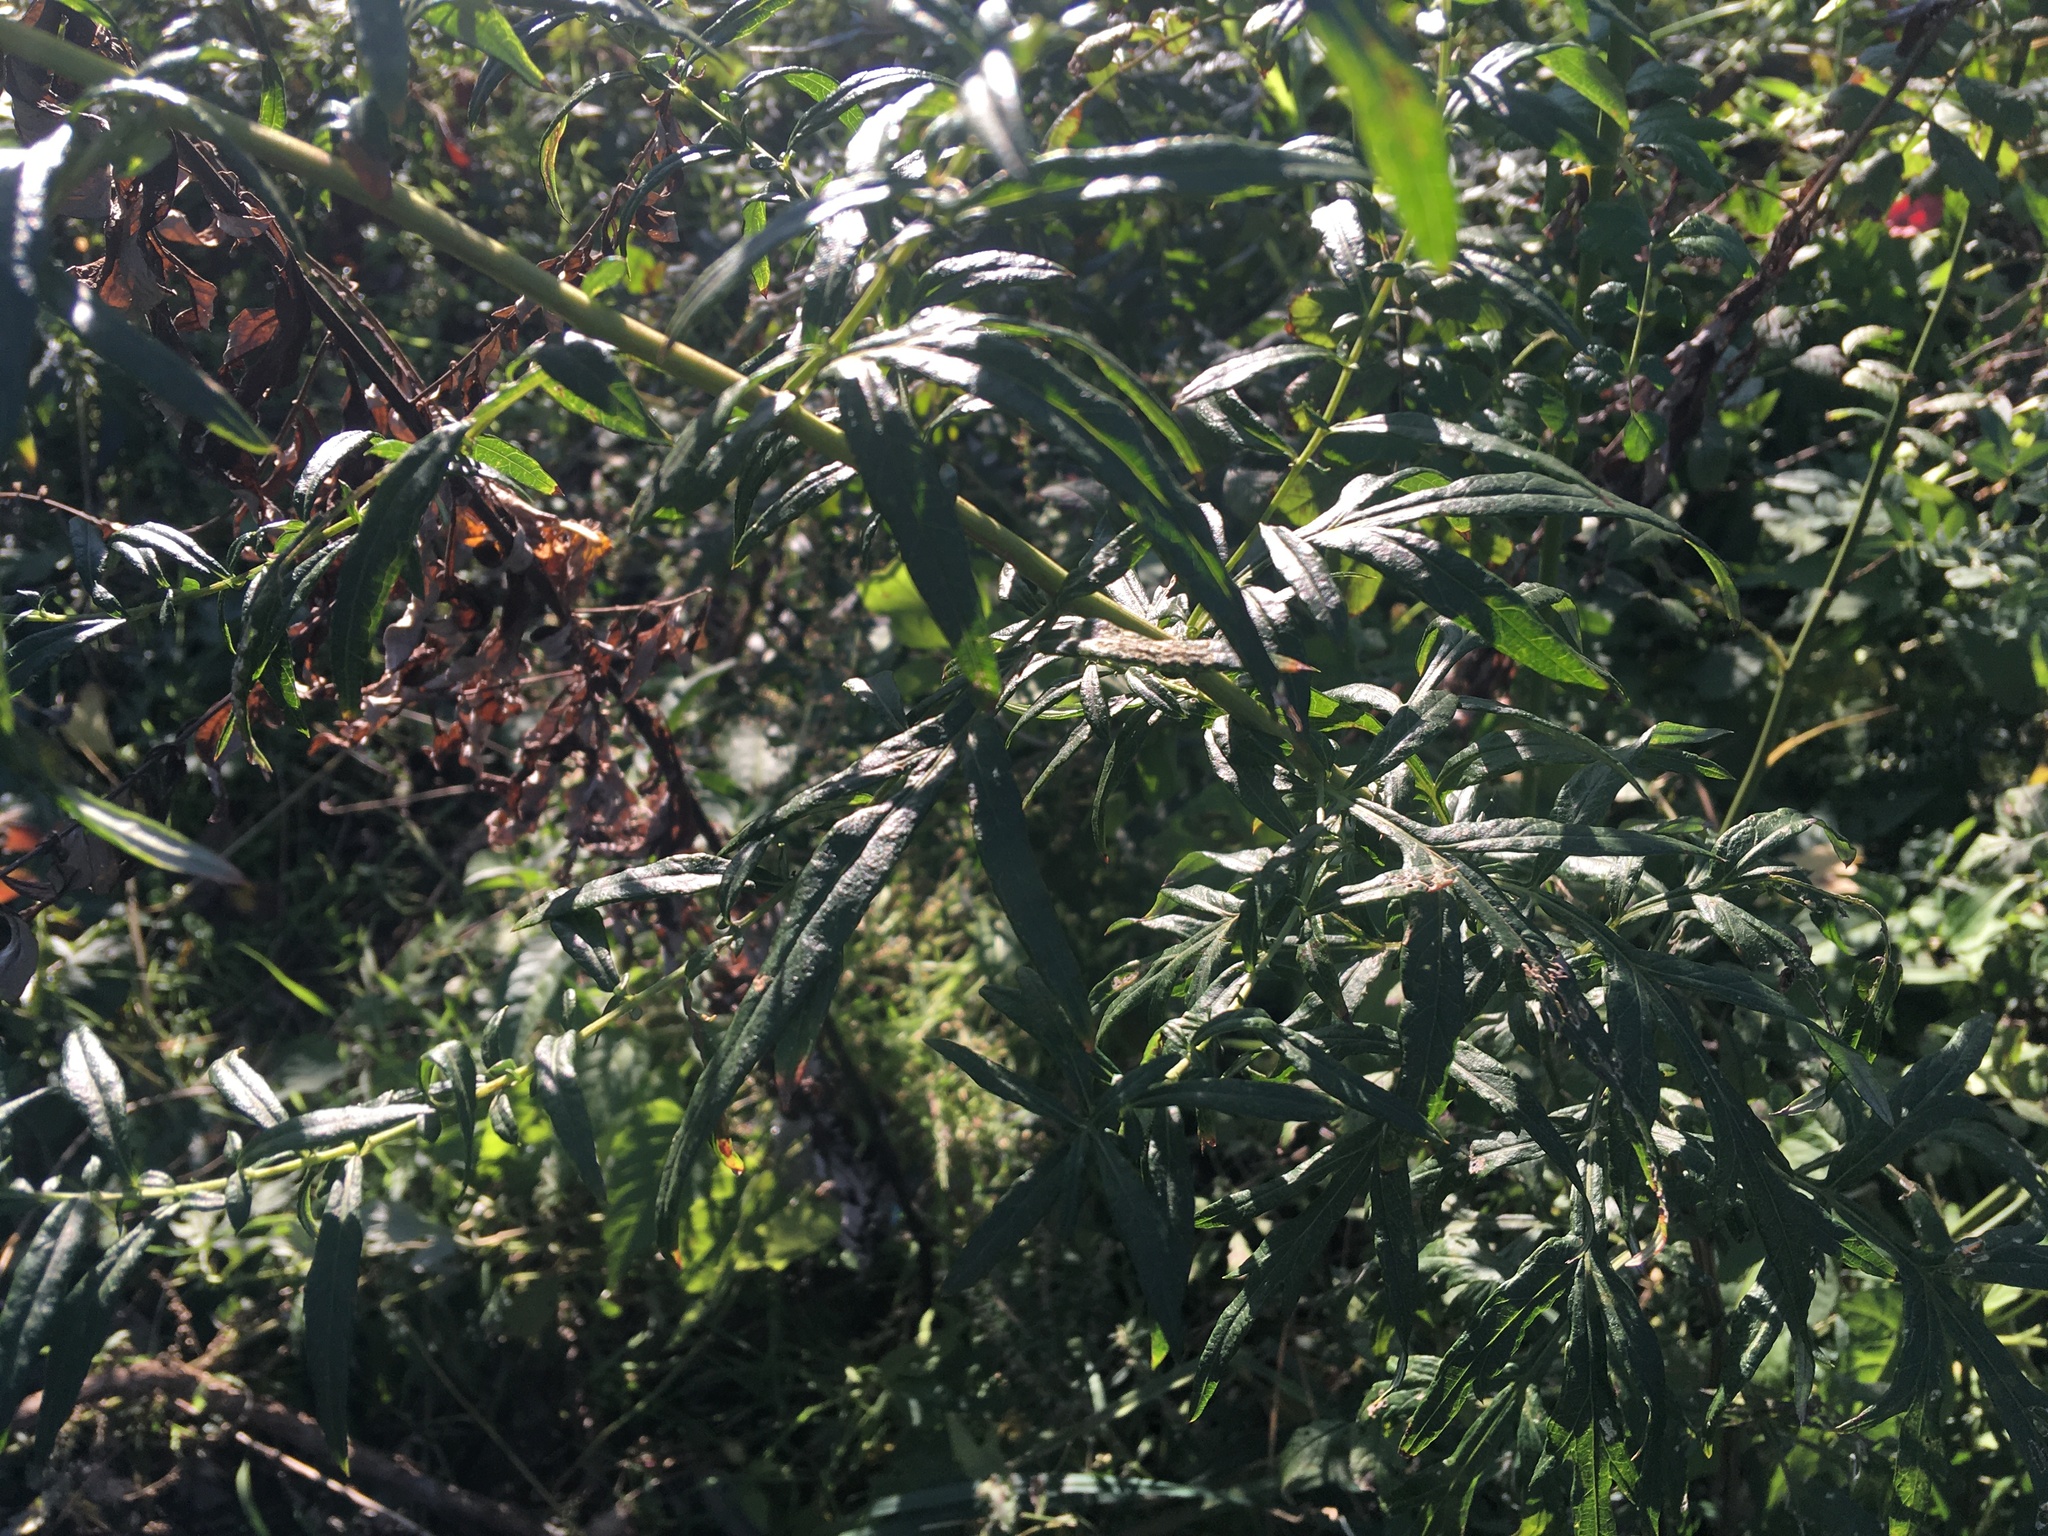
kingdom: Plantae
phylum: Tracheophyta
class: Magnoliopsida
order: Asterales
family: Asteraceae
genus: Artemisia
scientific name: Artemisia vulgaris
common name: Mugwort
